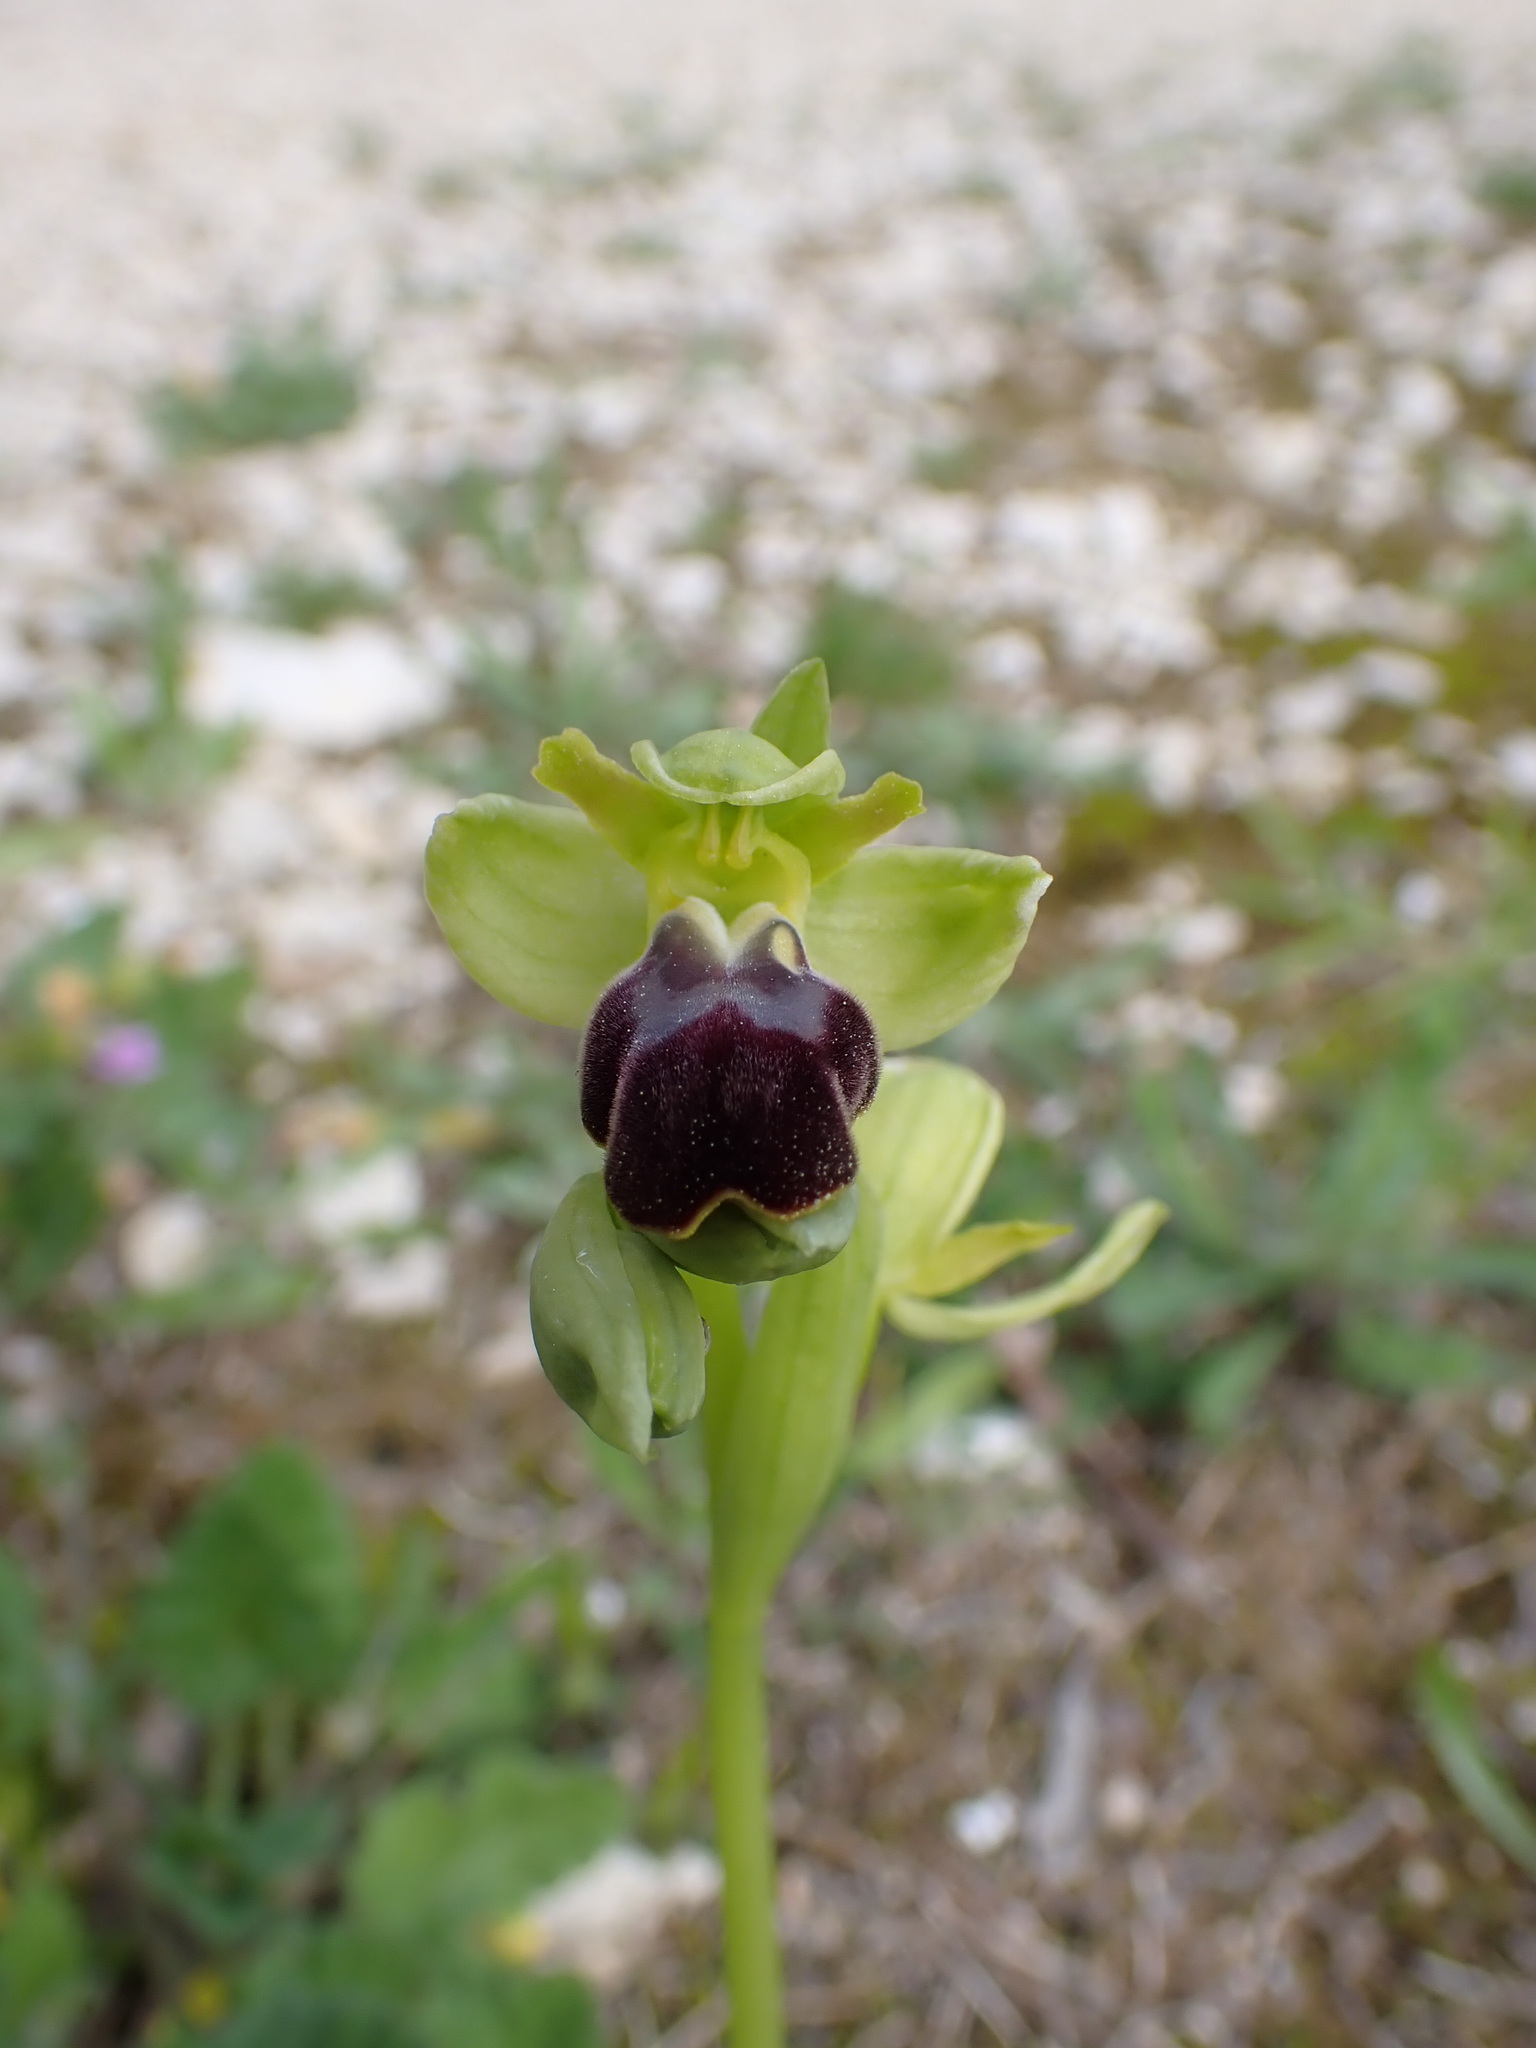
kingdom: Plantae
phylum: Tracheophyta
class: Liliopsida
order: Asparagales
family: Orchidaceae
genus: Ophrys
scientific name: Ophrys fusca
